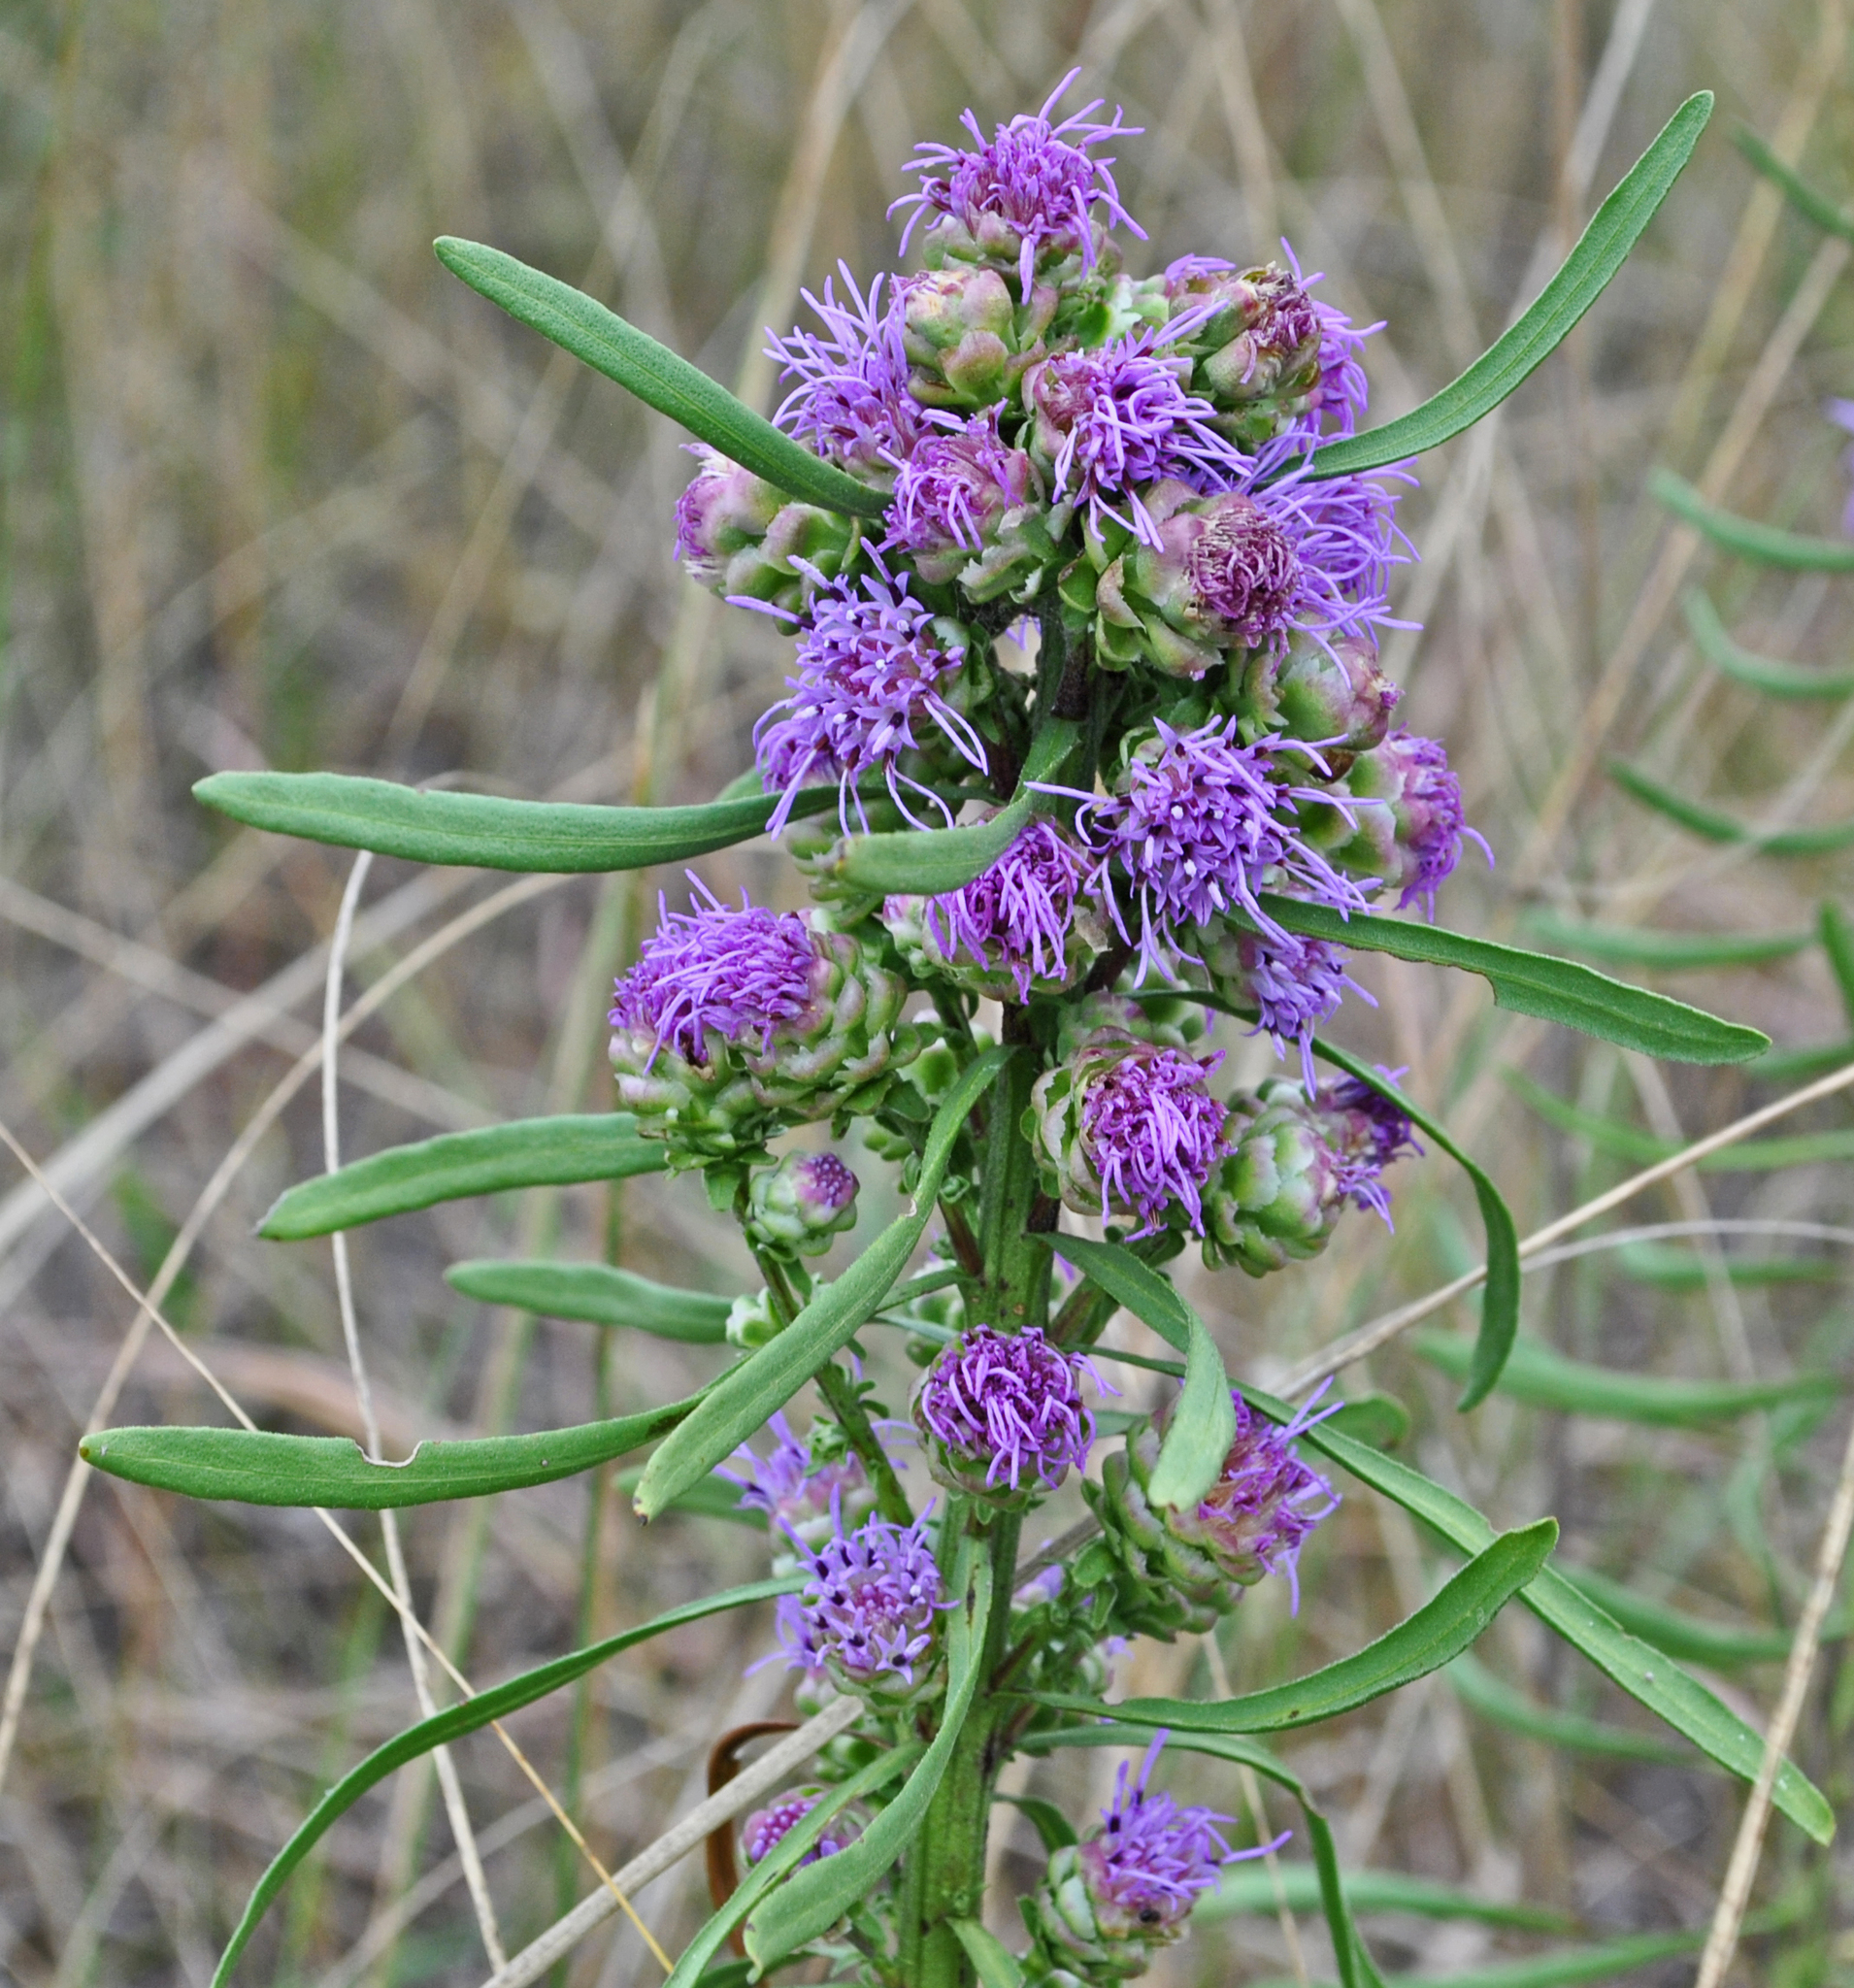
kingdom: Plantae
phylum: Tracheophyta
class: Magnoliopsida
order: Asterales
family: Asteraceae
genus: Liatris
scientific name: Liatris aspera
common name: Lacerate blazing-star
